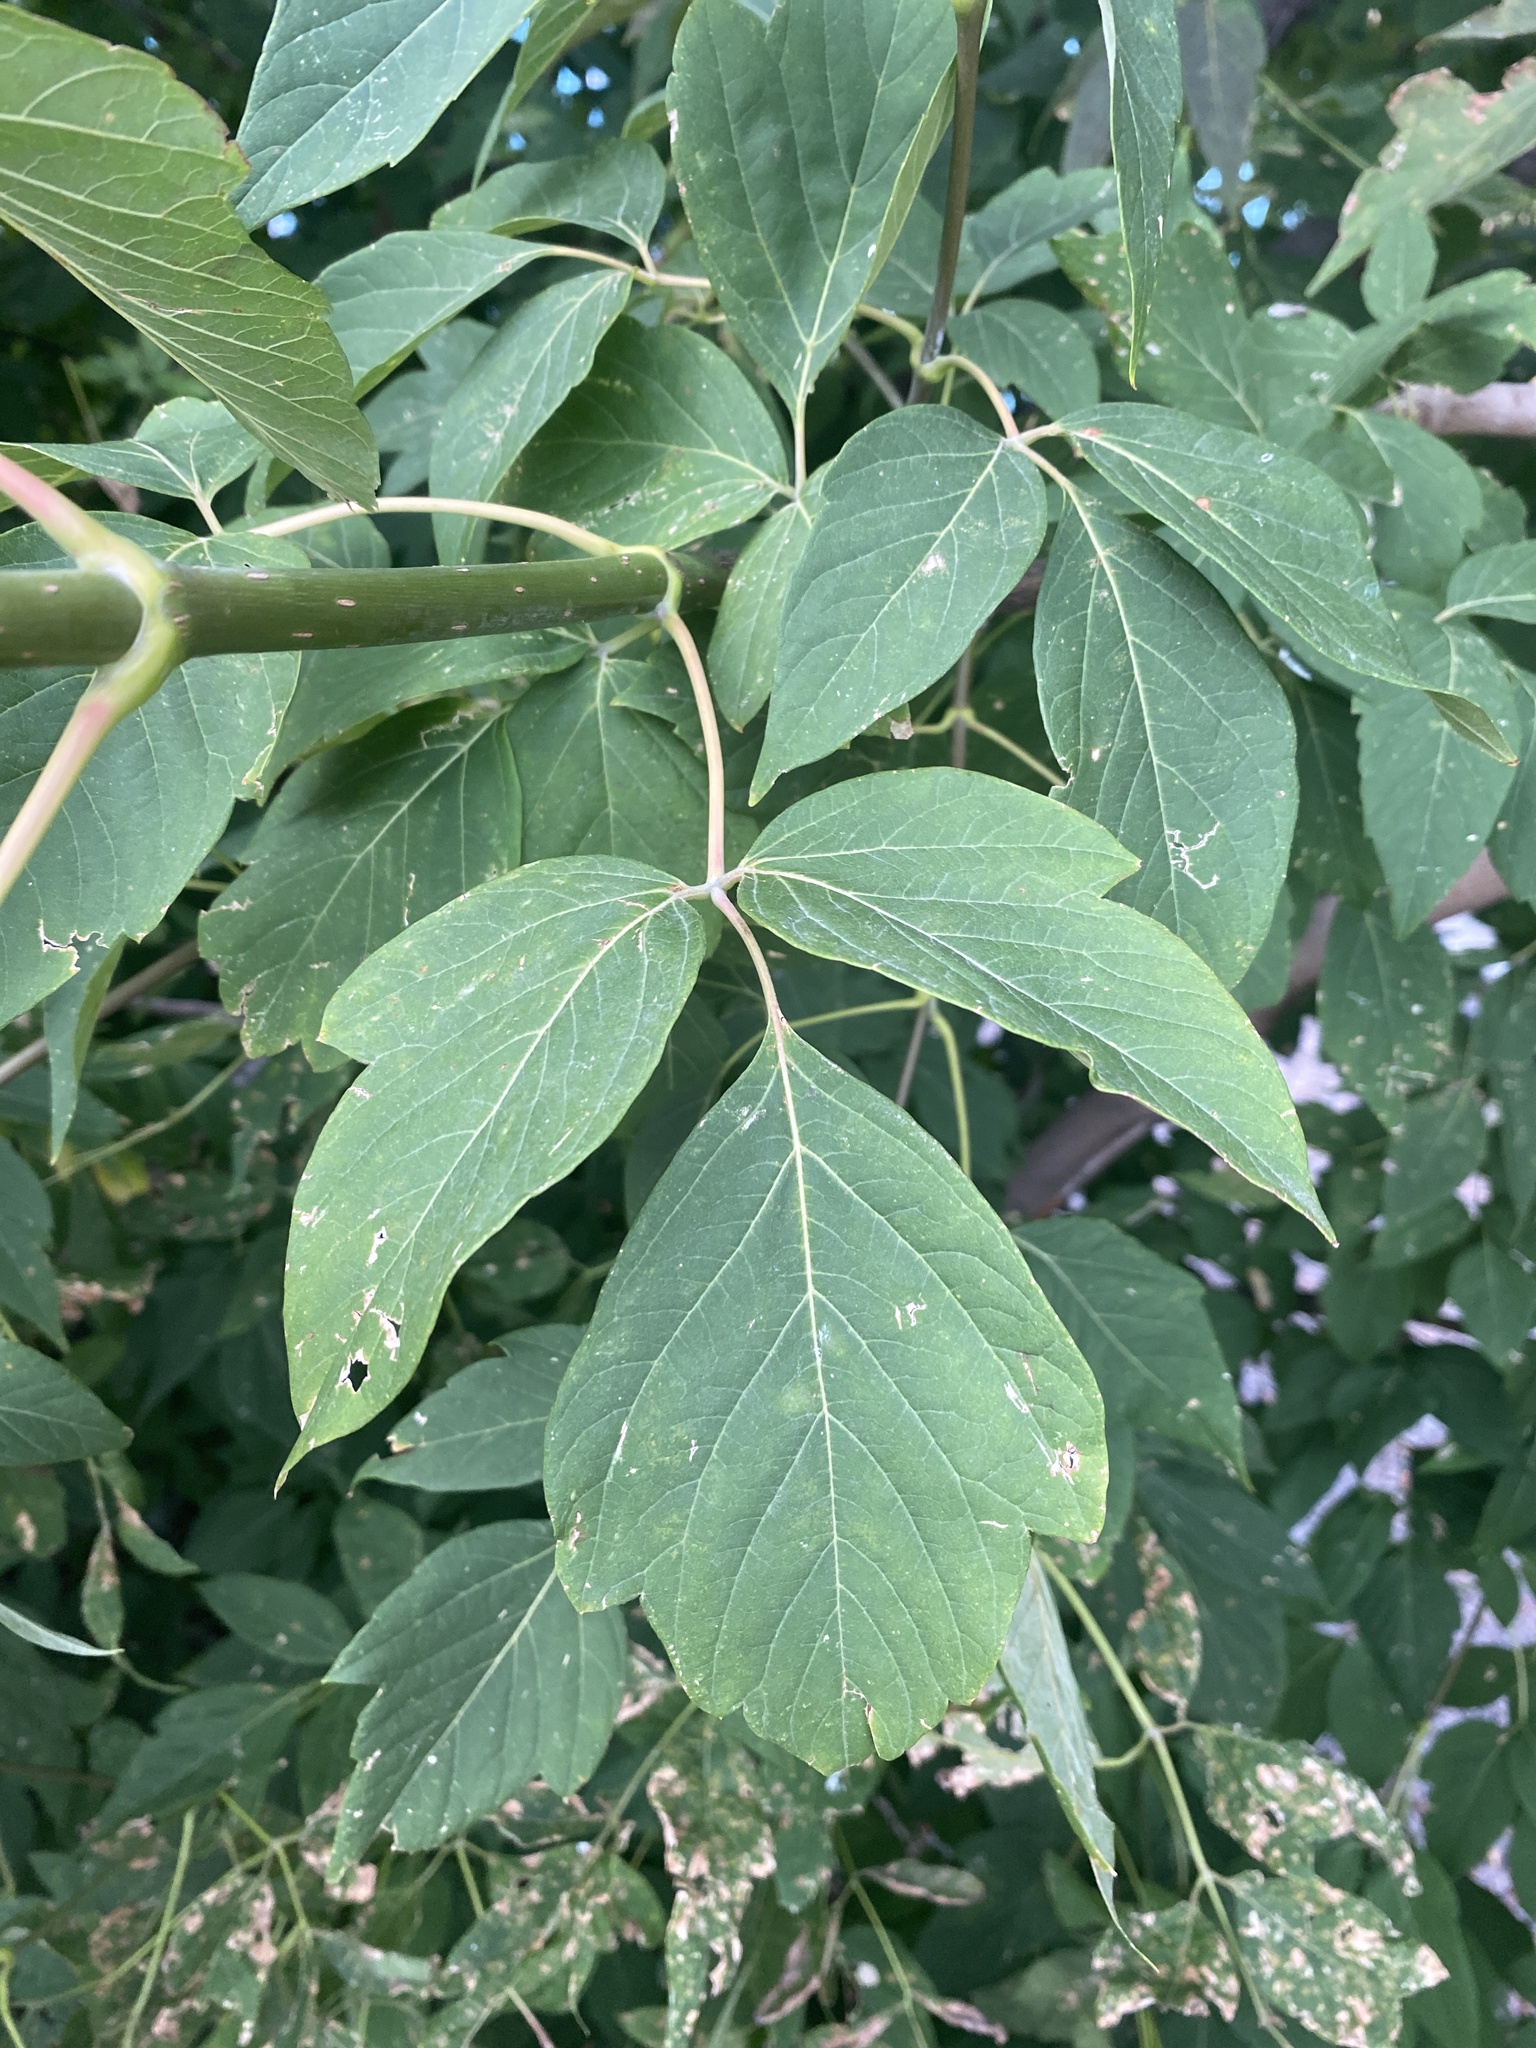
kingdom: Plantae
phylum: Tracheophyta
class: Magnoliopsida
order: Sapindales
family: Sapindaceae
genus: Acer
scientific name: Acer negundo
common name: Ashleaf maple
